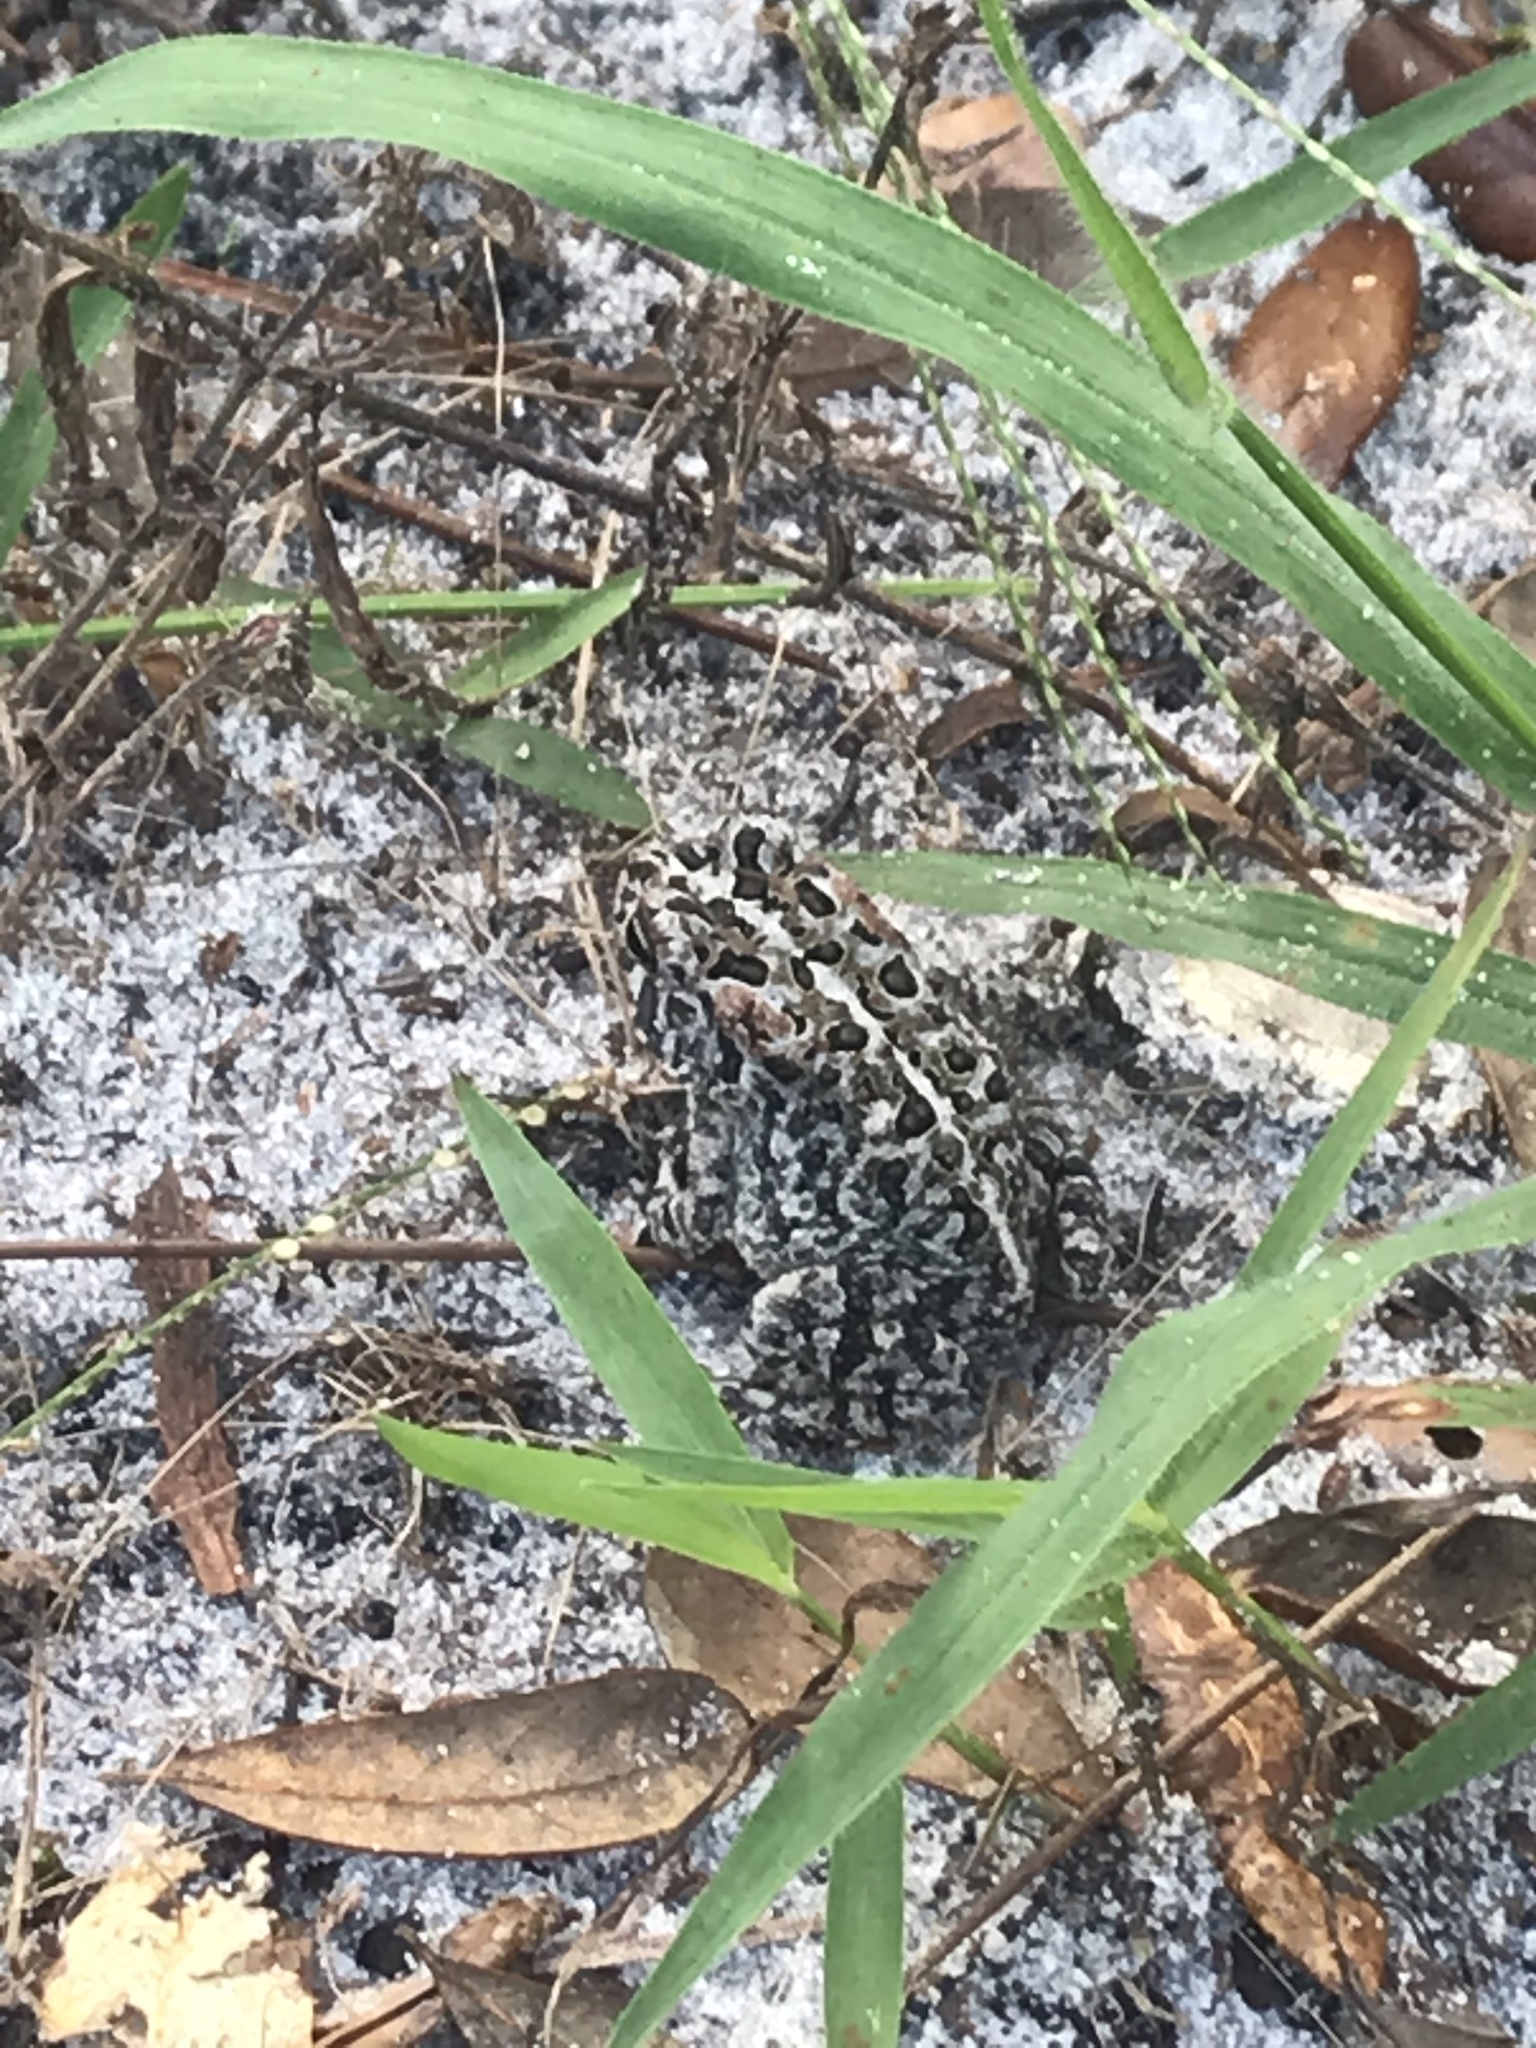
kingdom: Animalia
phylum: Chordata
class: Amphibia
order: Anura
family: Bufonidae
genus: Anaxyrus
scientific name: Anaxyrus terrestris
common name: Southern toad
